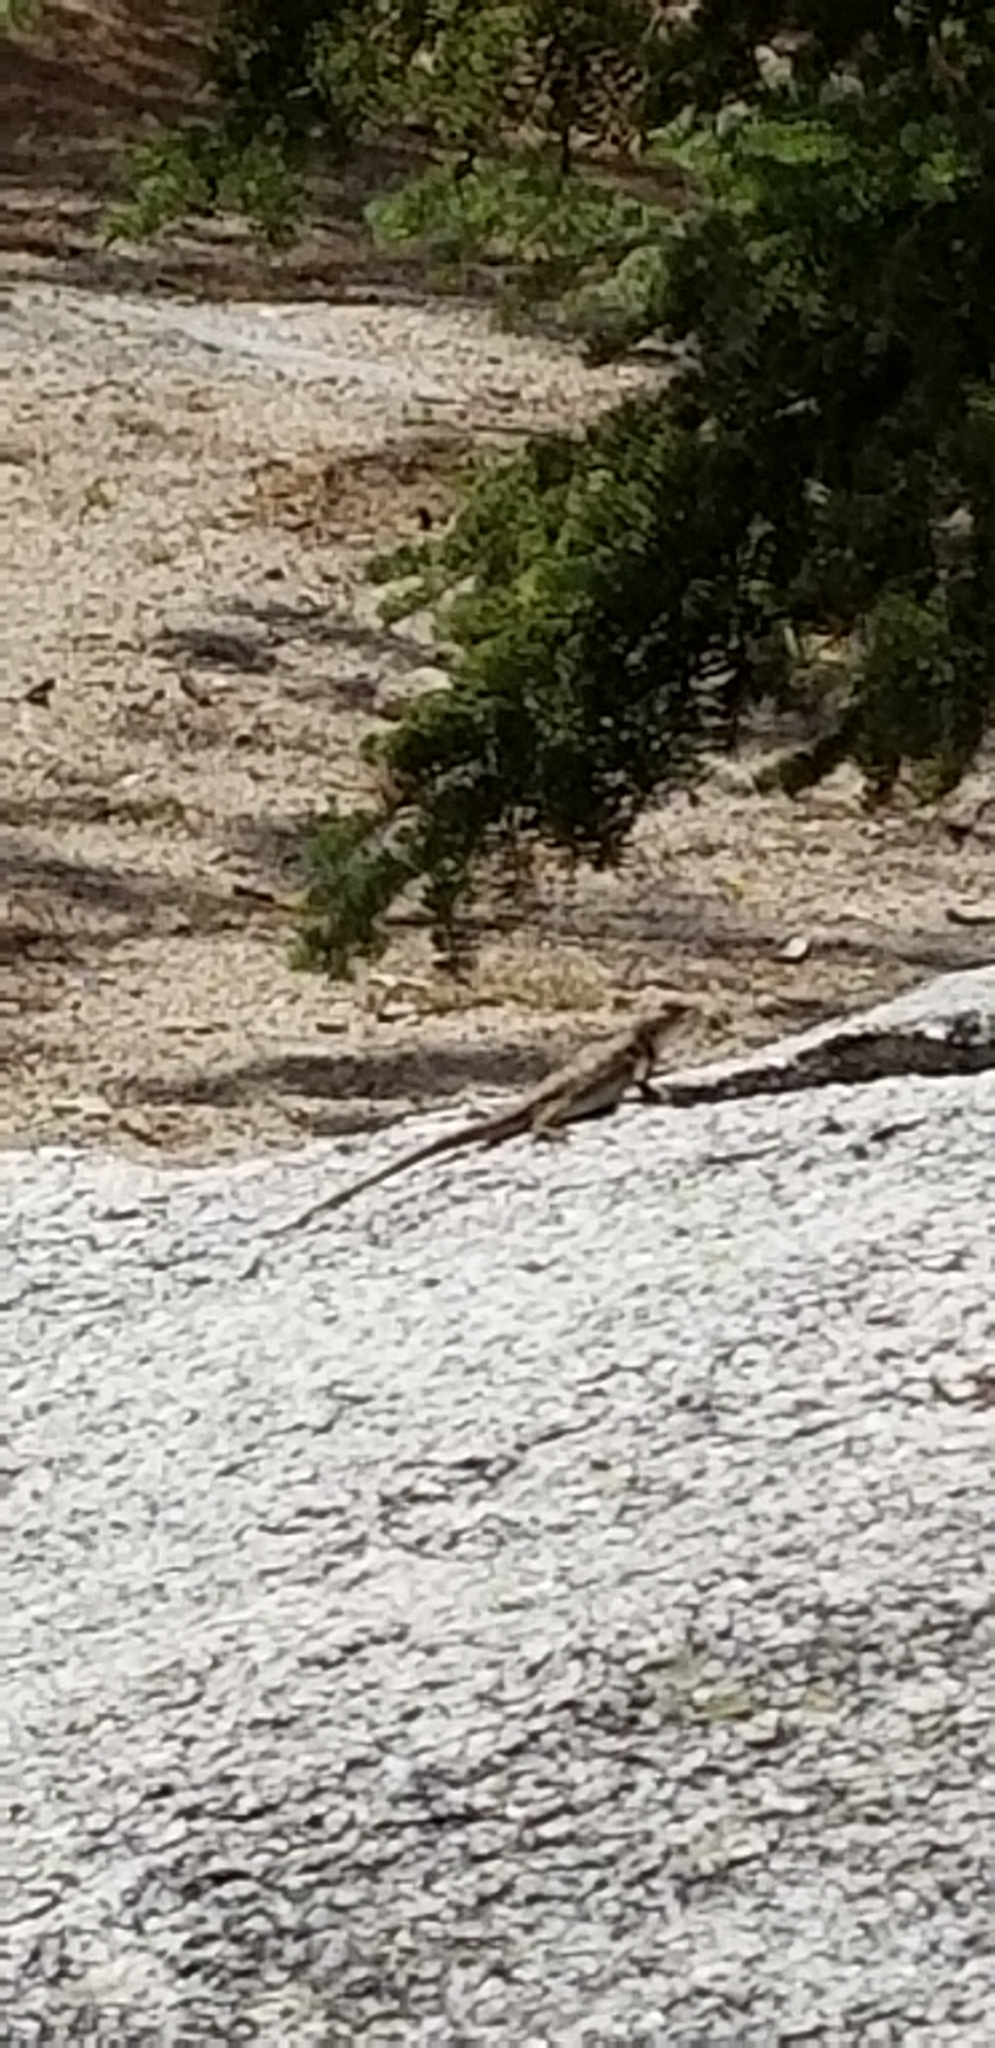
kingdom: Animalia
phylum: Chordata
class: Squamata
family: Phrynosomatidae
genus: Sceloporus
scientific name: Sceloporus graciosus
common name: Sagebrush lizard
